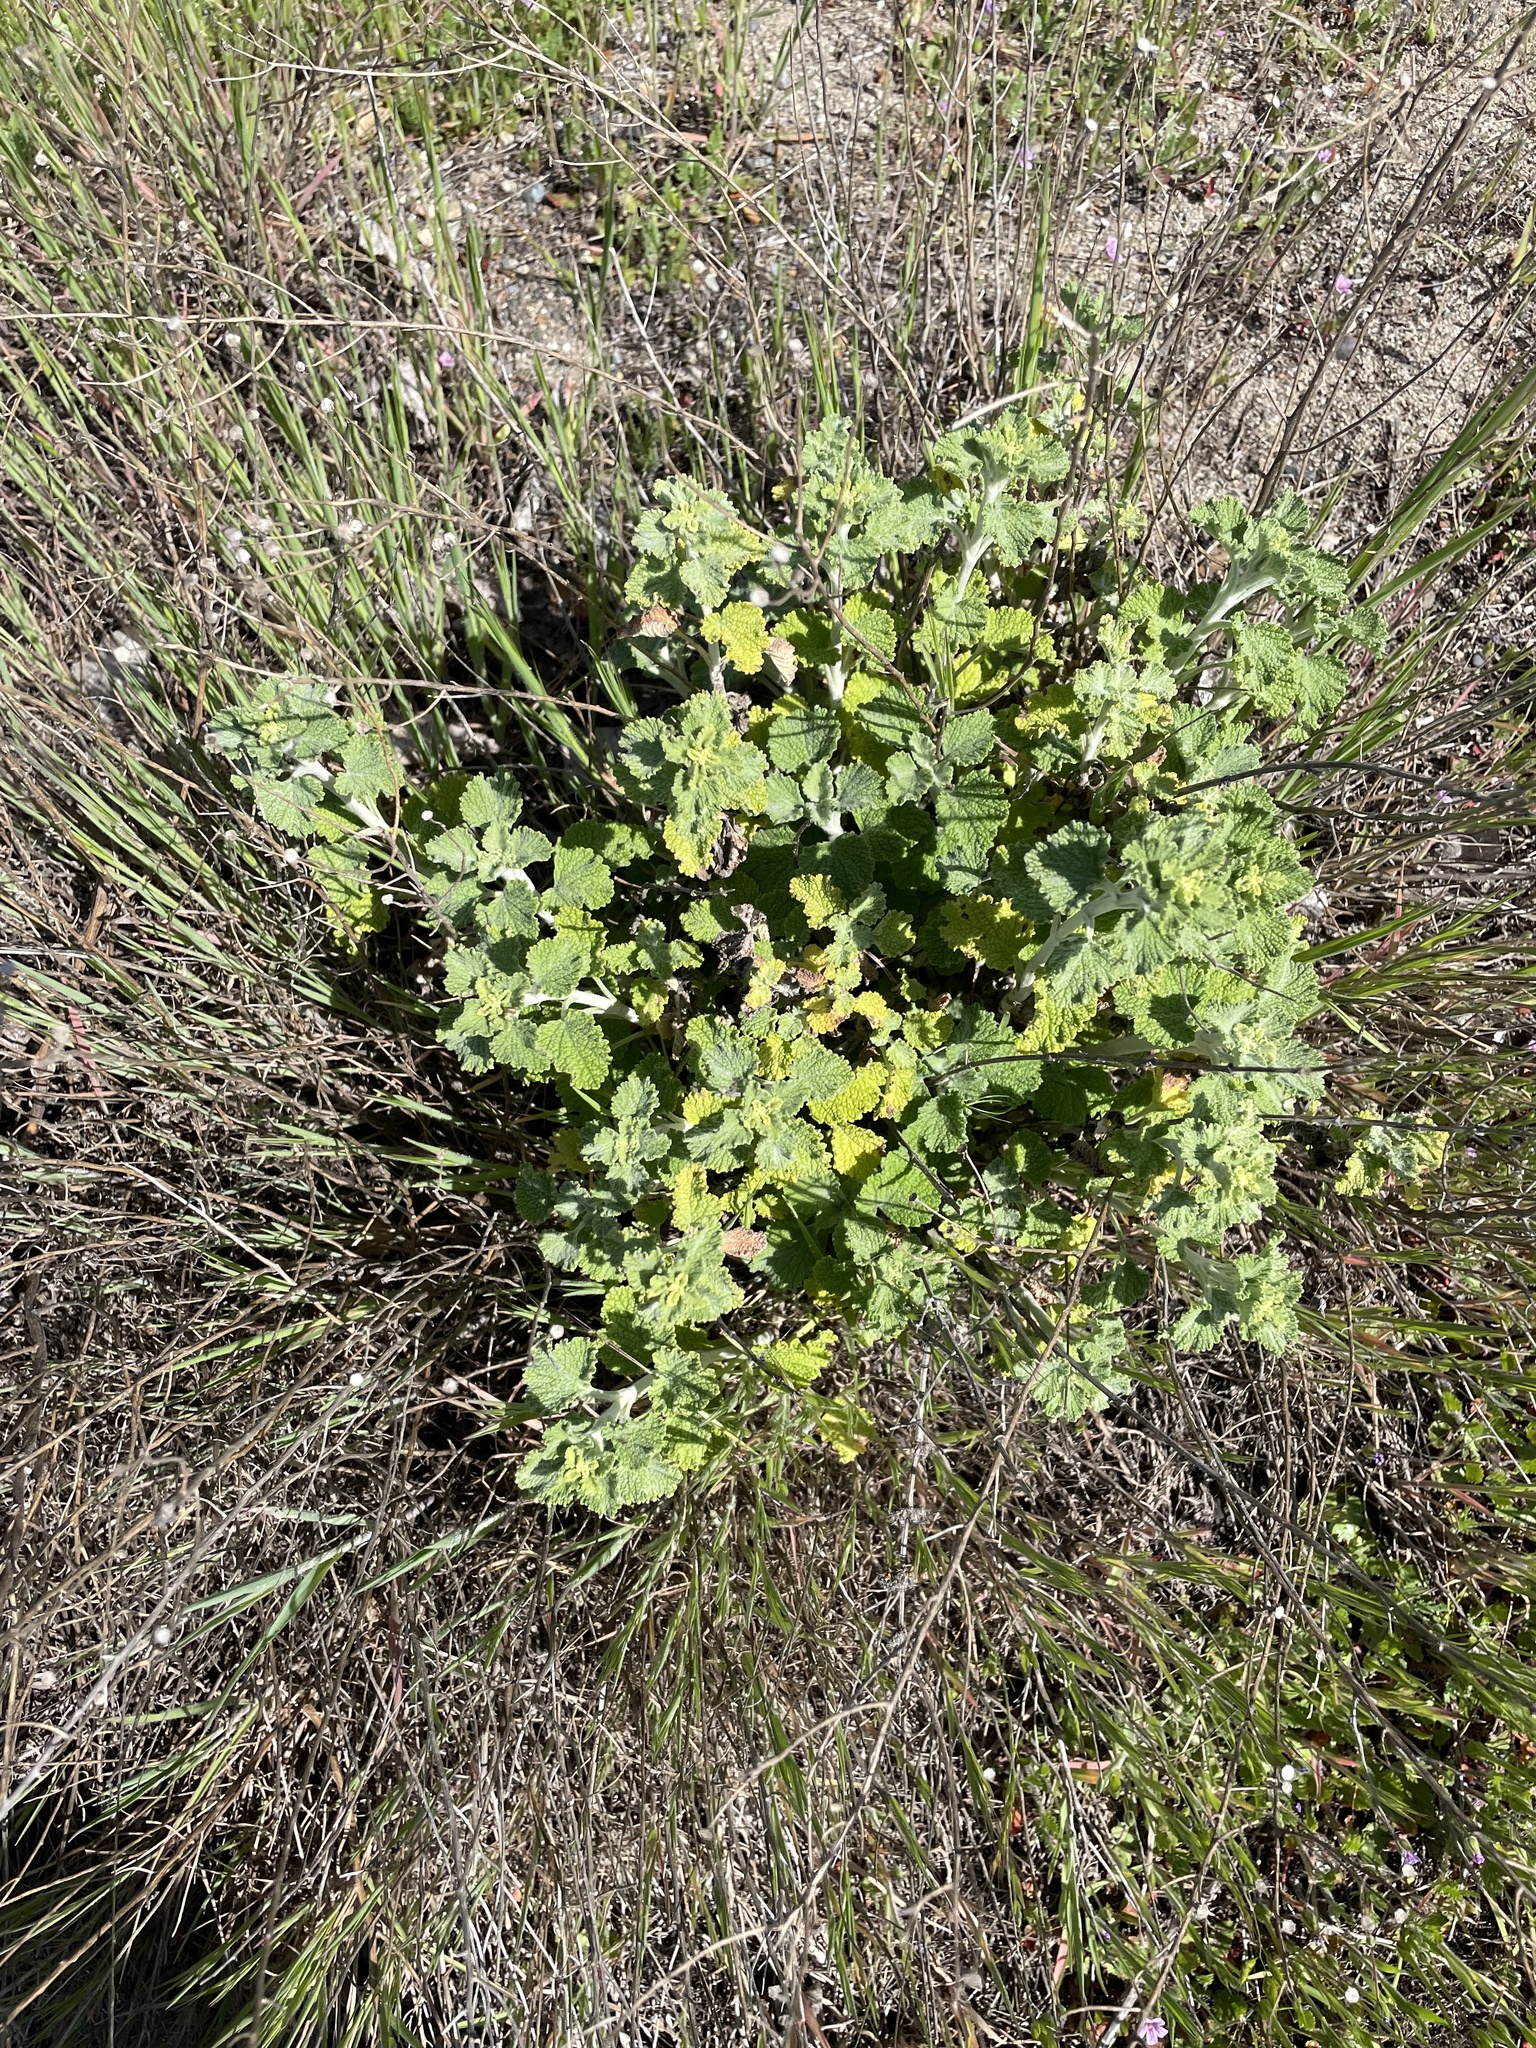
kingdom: Plantae
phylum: Tracheophyta
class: Magnoliopsida
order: Lamiales
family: Lamiaceae
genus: Marrubium
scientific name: Marrubium vulgare
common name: Horehound
